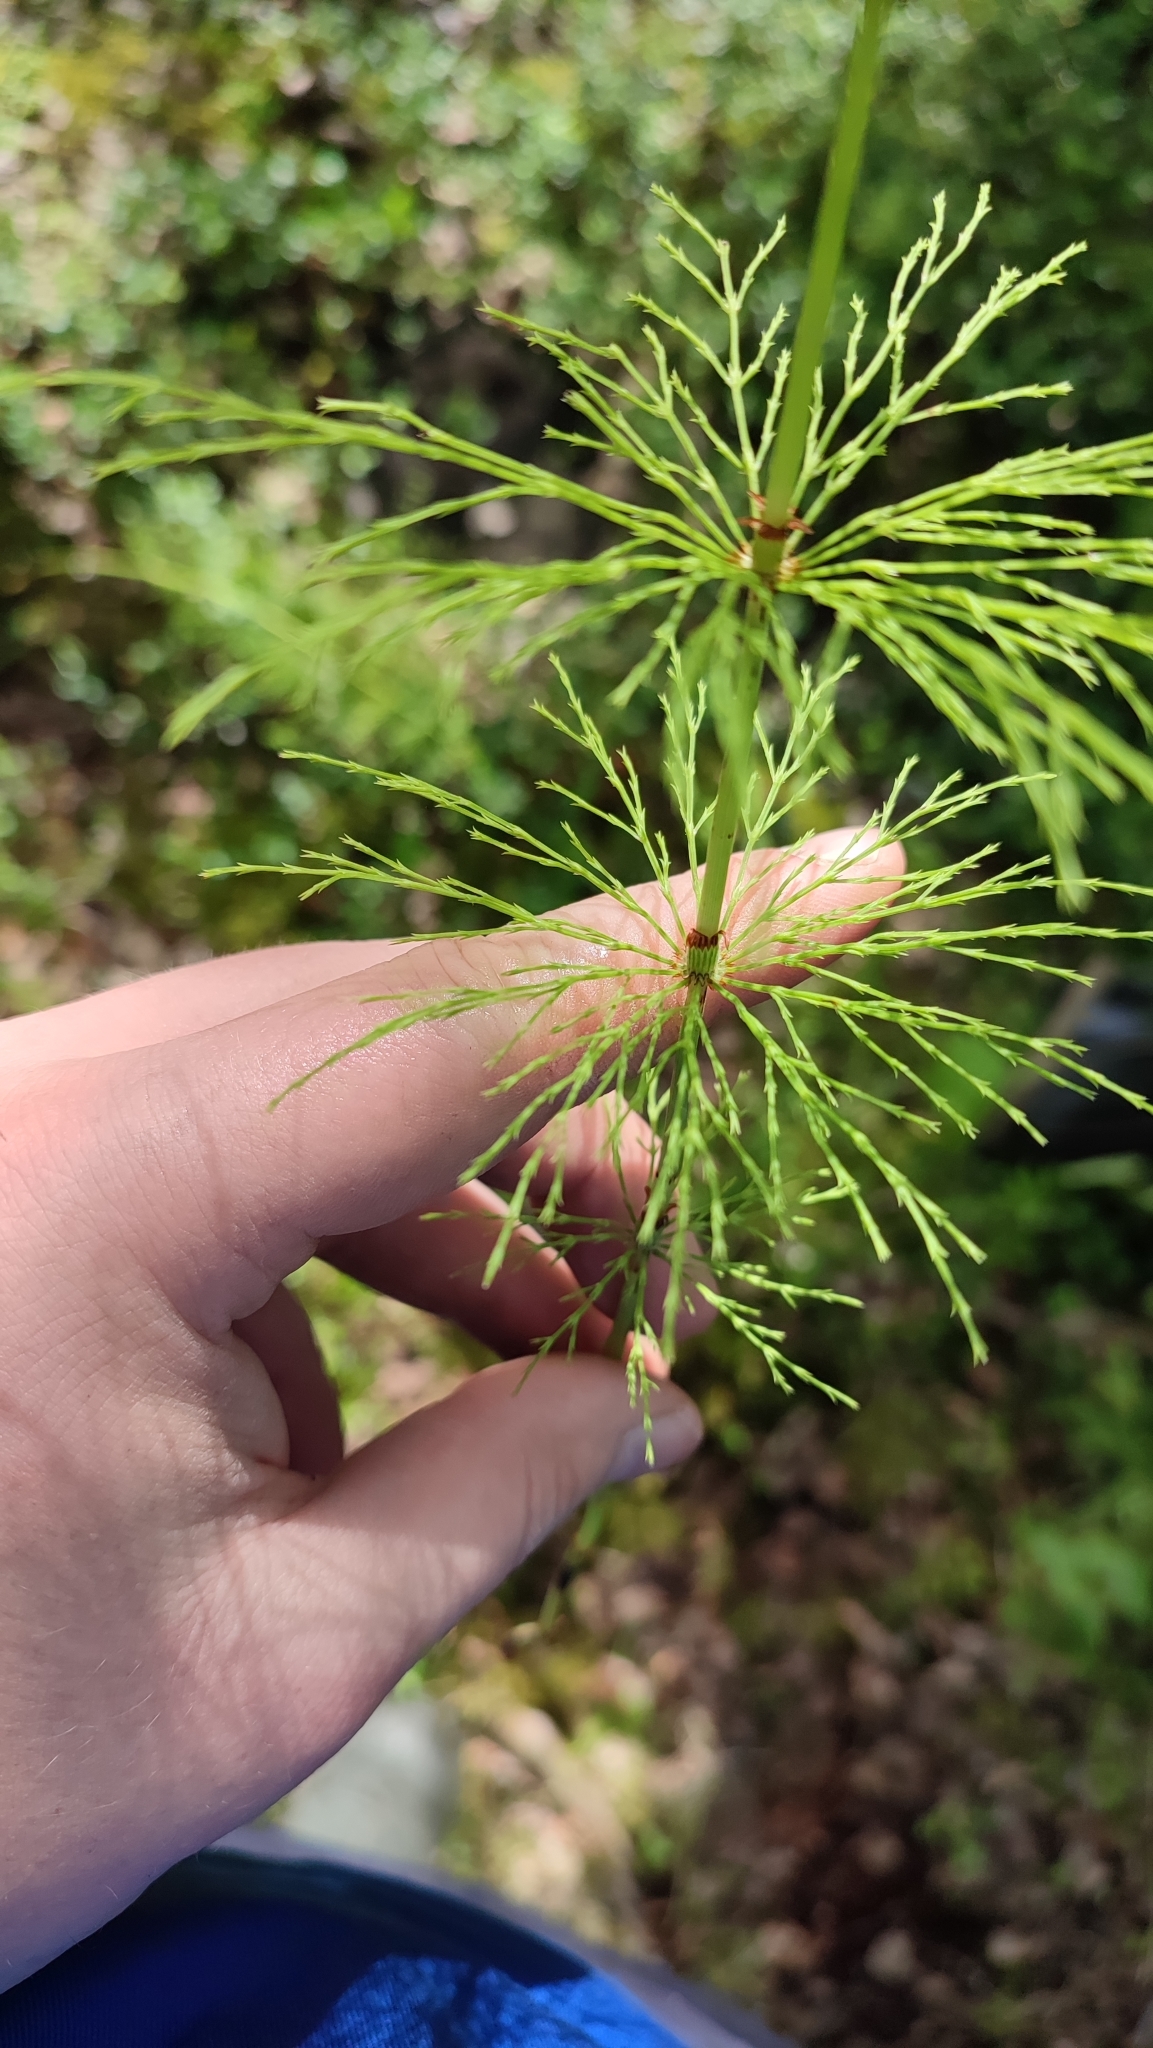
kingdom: Plantae
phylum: Tracheophyta
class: Polypodiopsida
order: Equisetales
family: Equisetaceae
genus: Equisetum
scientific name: Equisetum sylvaticum
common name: Wood horsetail
